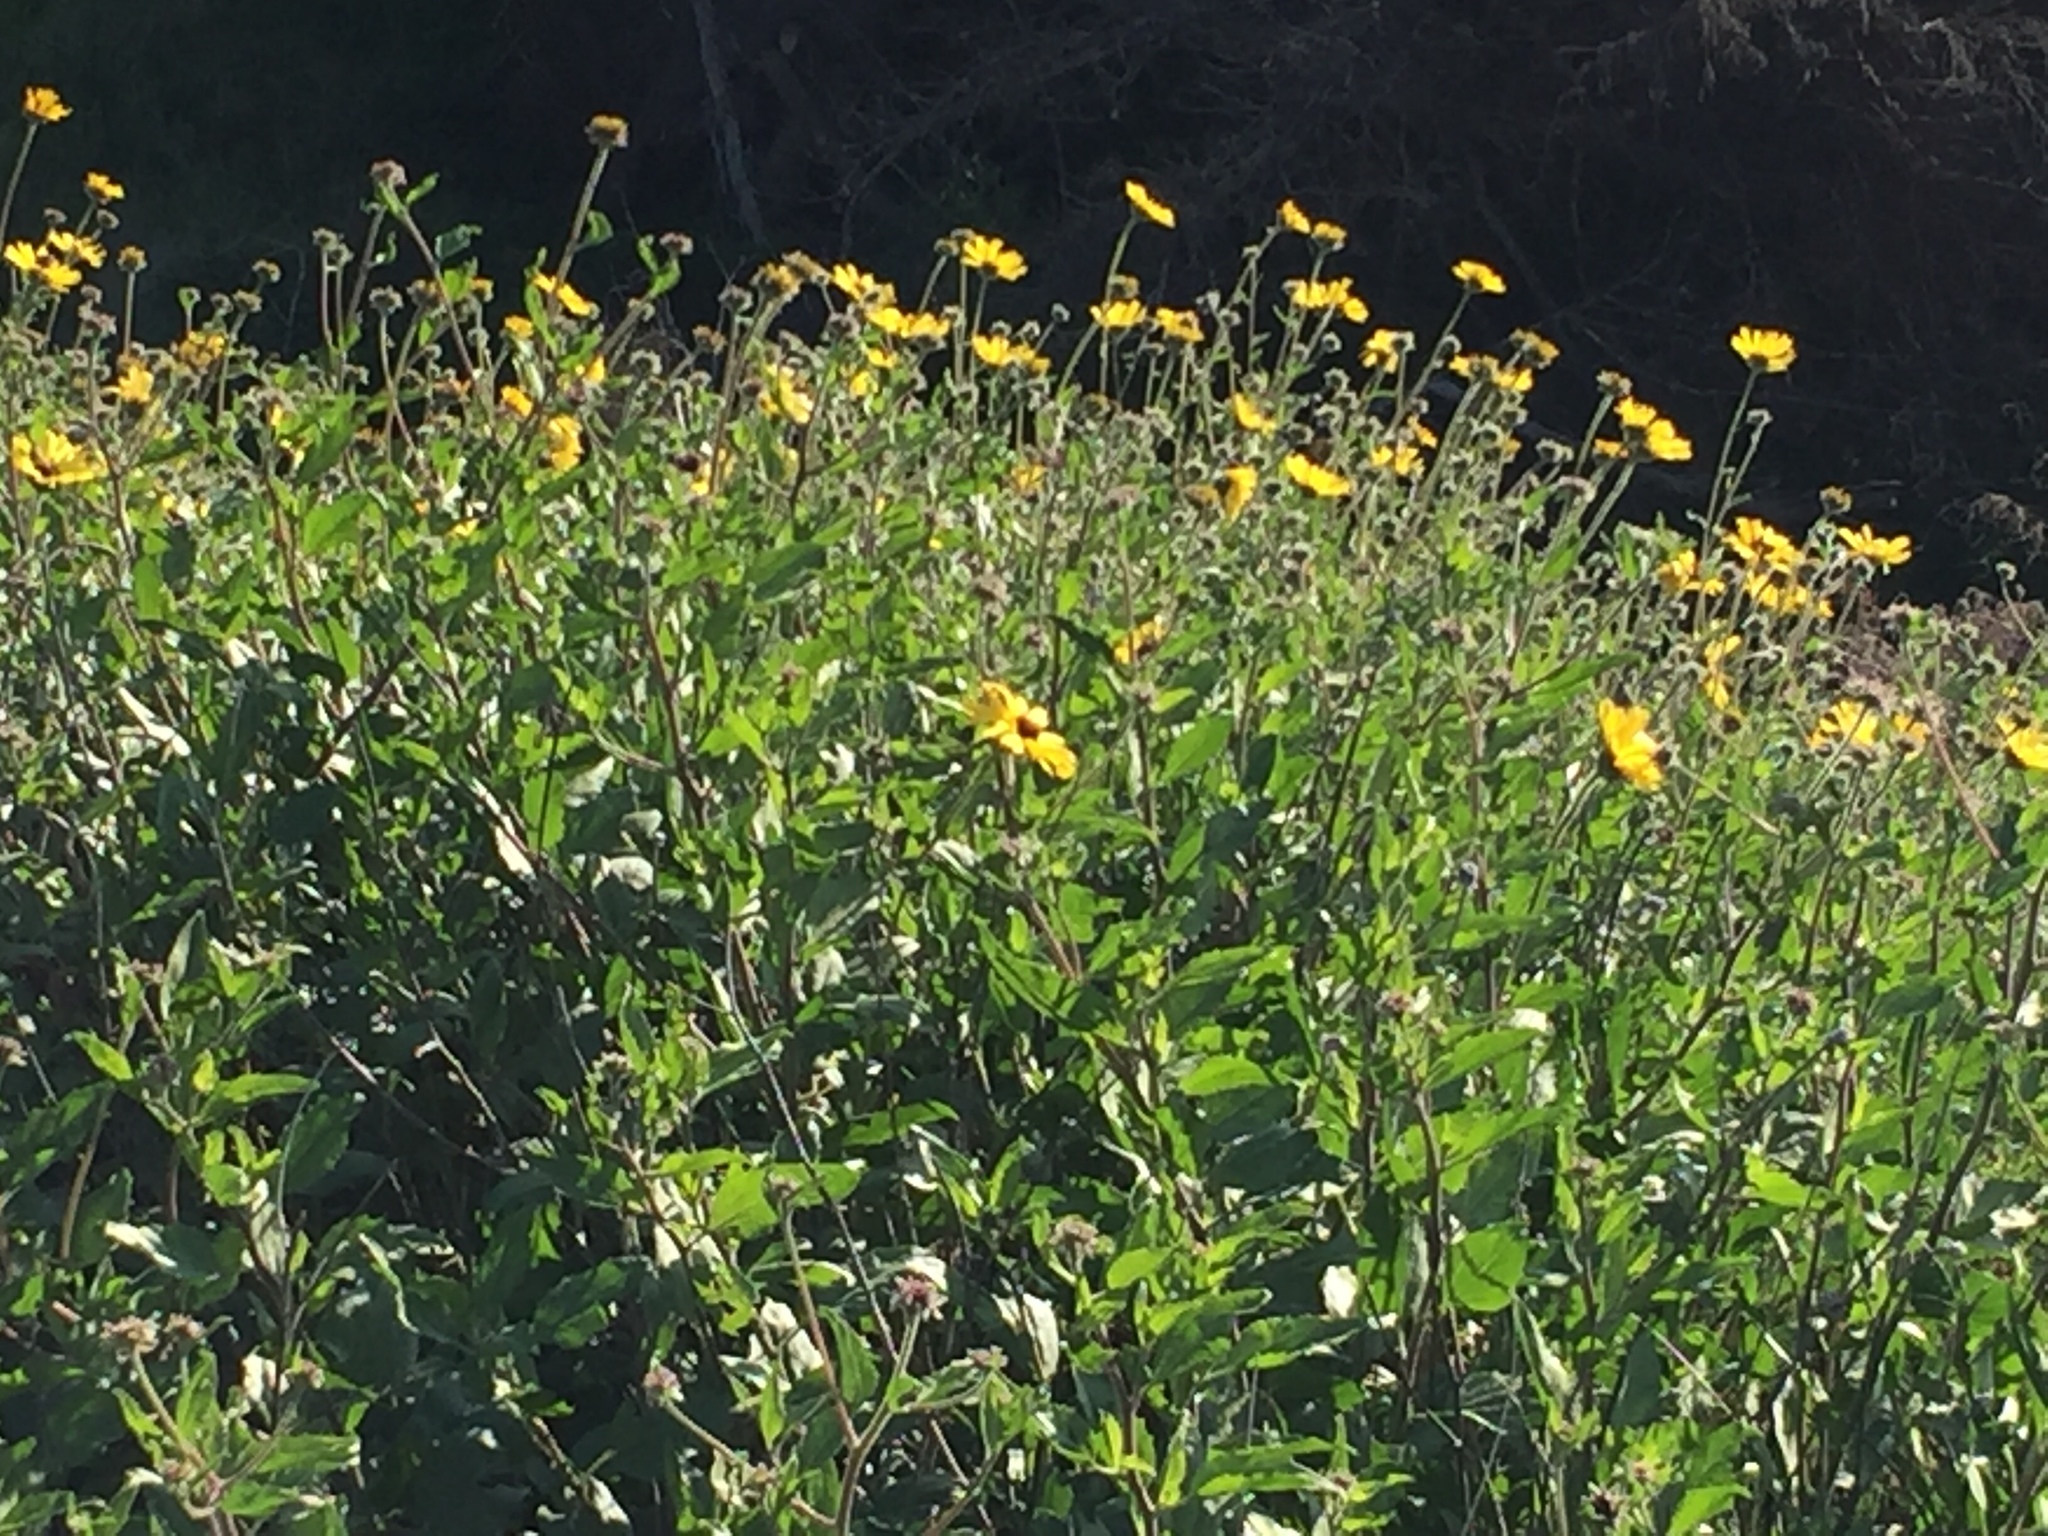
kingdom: Plantae
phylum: Tracheophyta
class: Magnoliopsida
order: Asterales
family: Asteraceae
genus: Encelia
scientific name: Encelia californica
